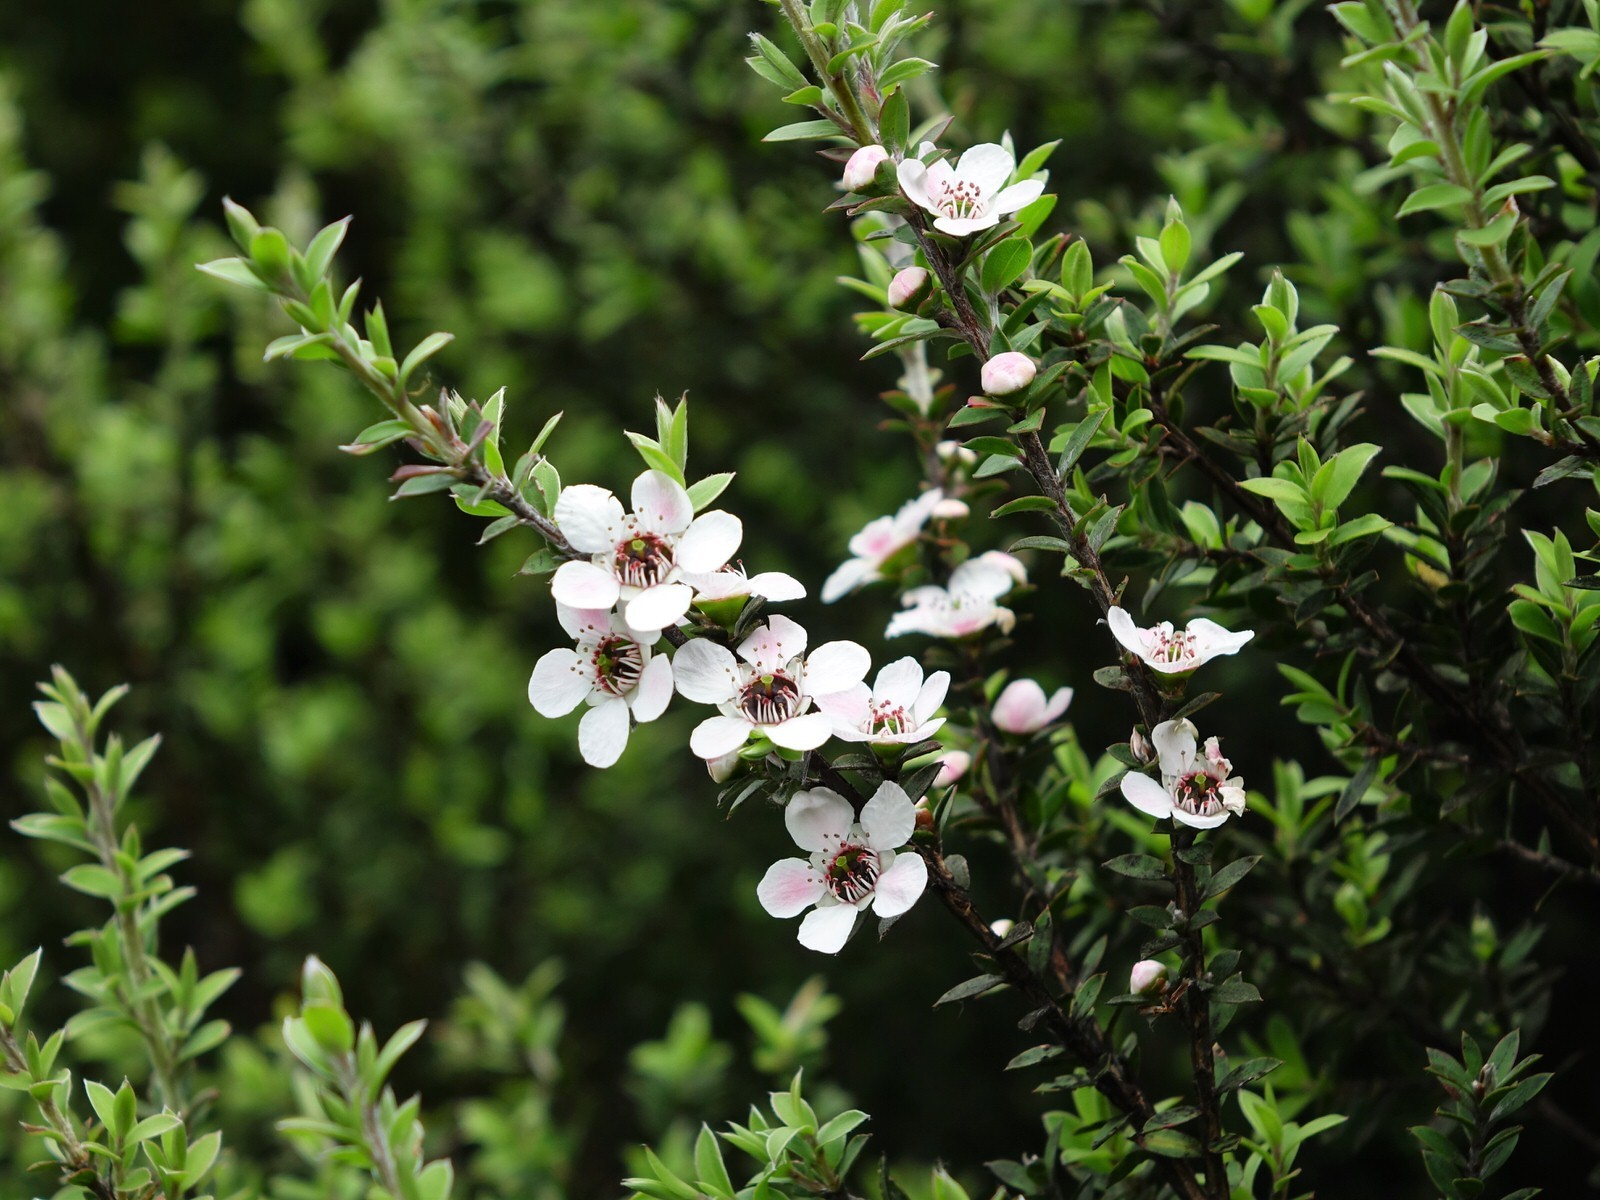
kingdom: Plantae
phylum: Tracheophyta
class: Magnoliopsida
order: Myrtales
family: Myrtaceae
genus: Leptospermum
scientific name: Leptospermum scoparium
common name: Broom tea-tree
